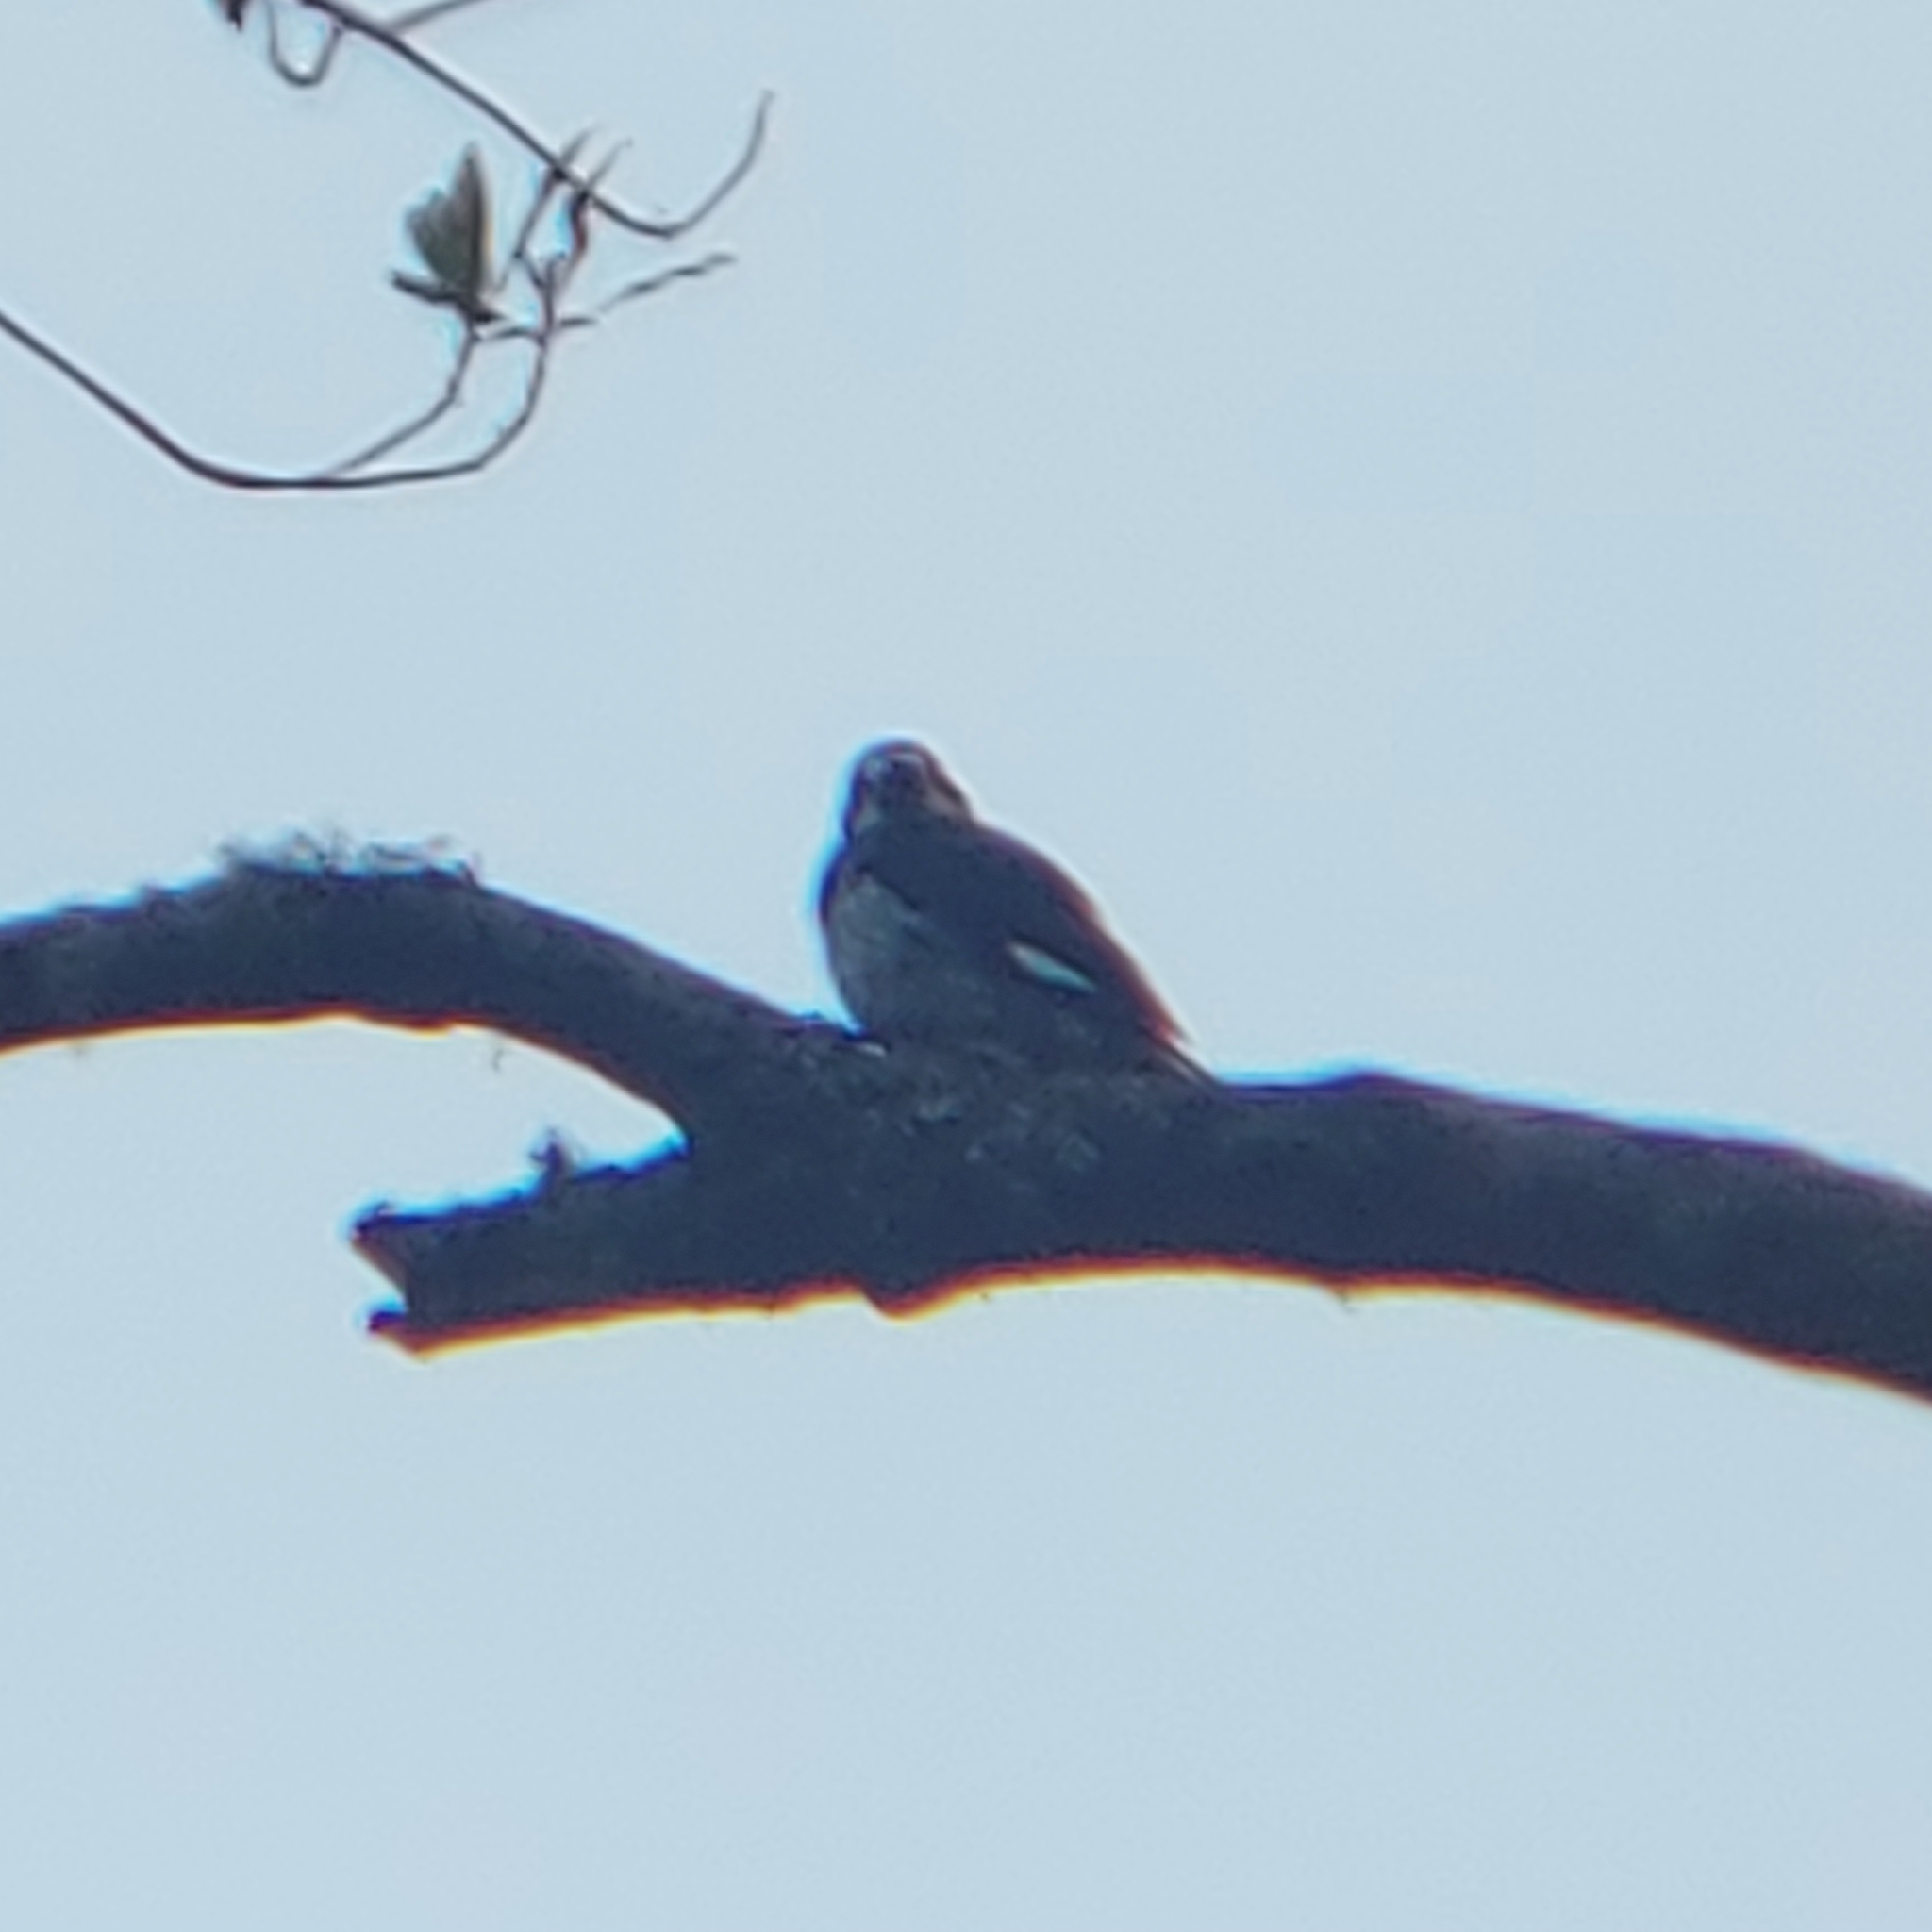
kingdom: Animalia
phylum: Chordata
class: Aves
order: Piciformes
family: Picidae
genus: Melanerpes
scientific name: Melanerpes formicivorus
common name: Acorn woodpecker
